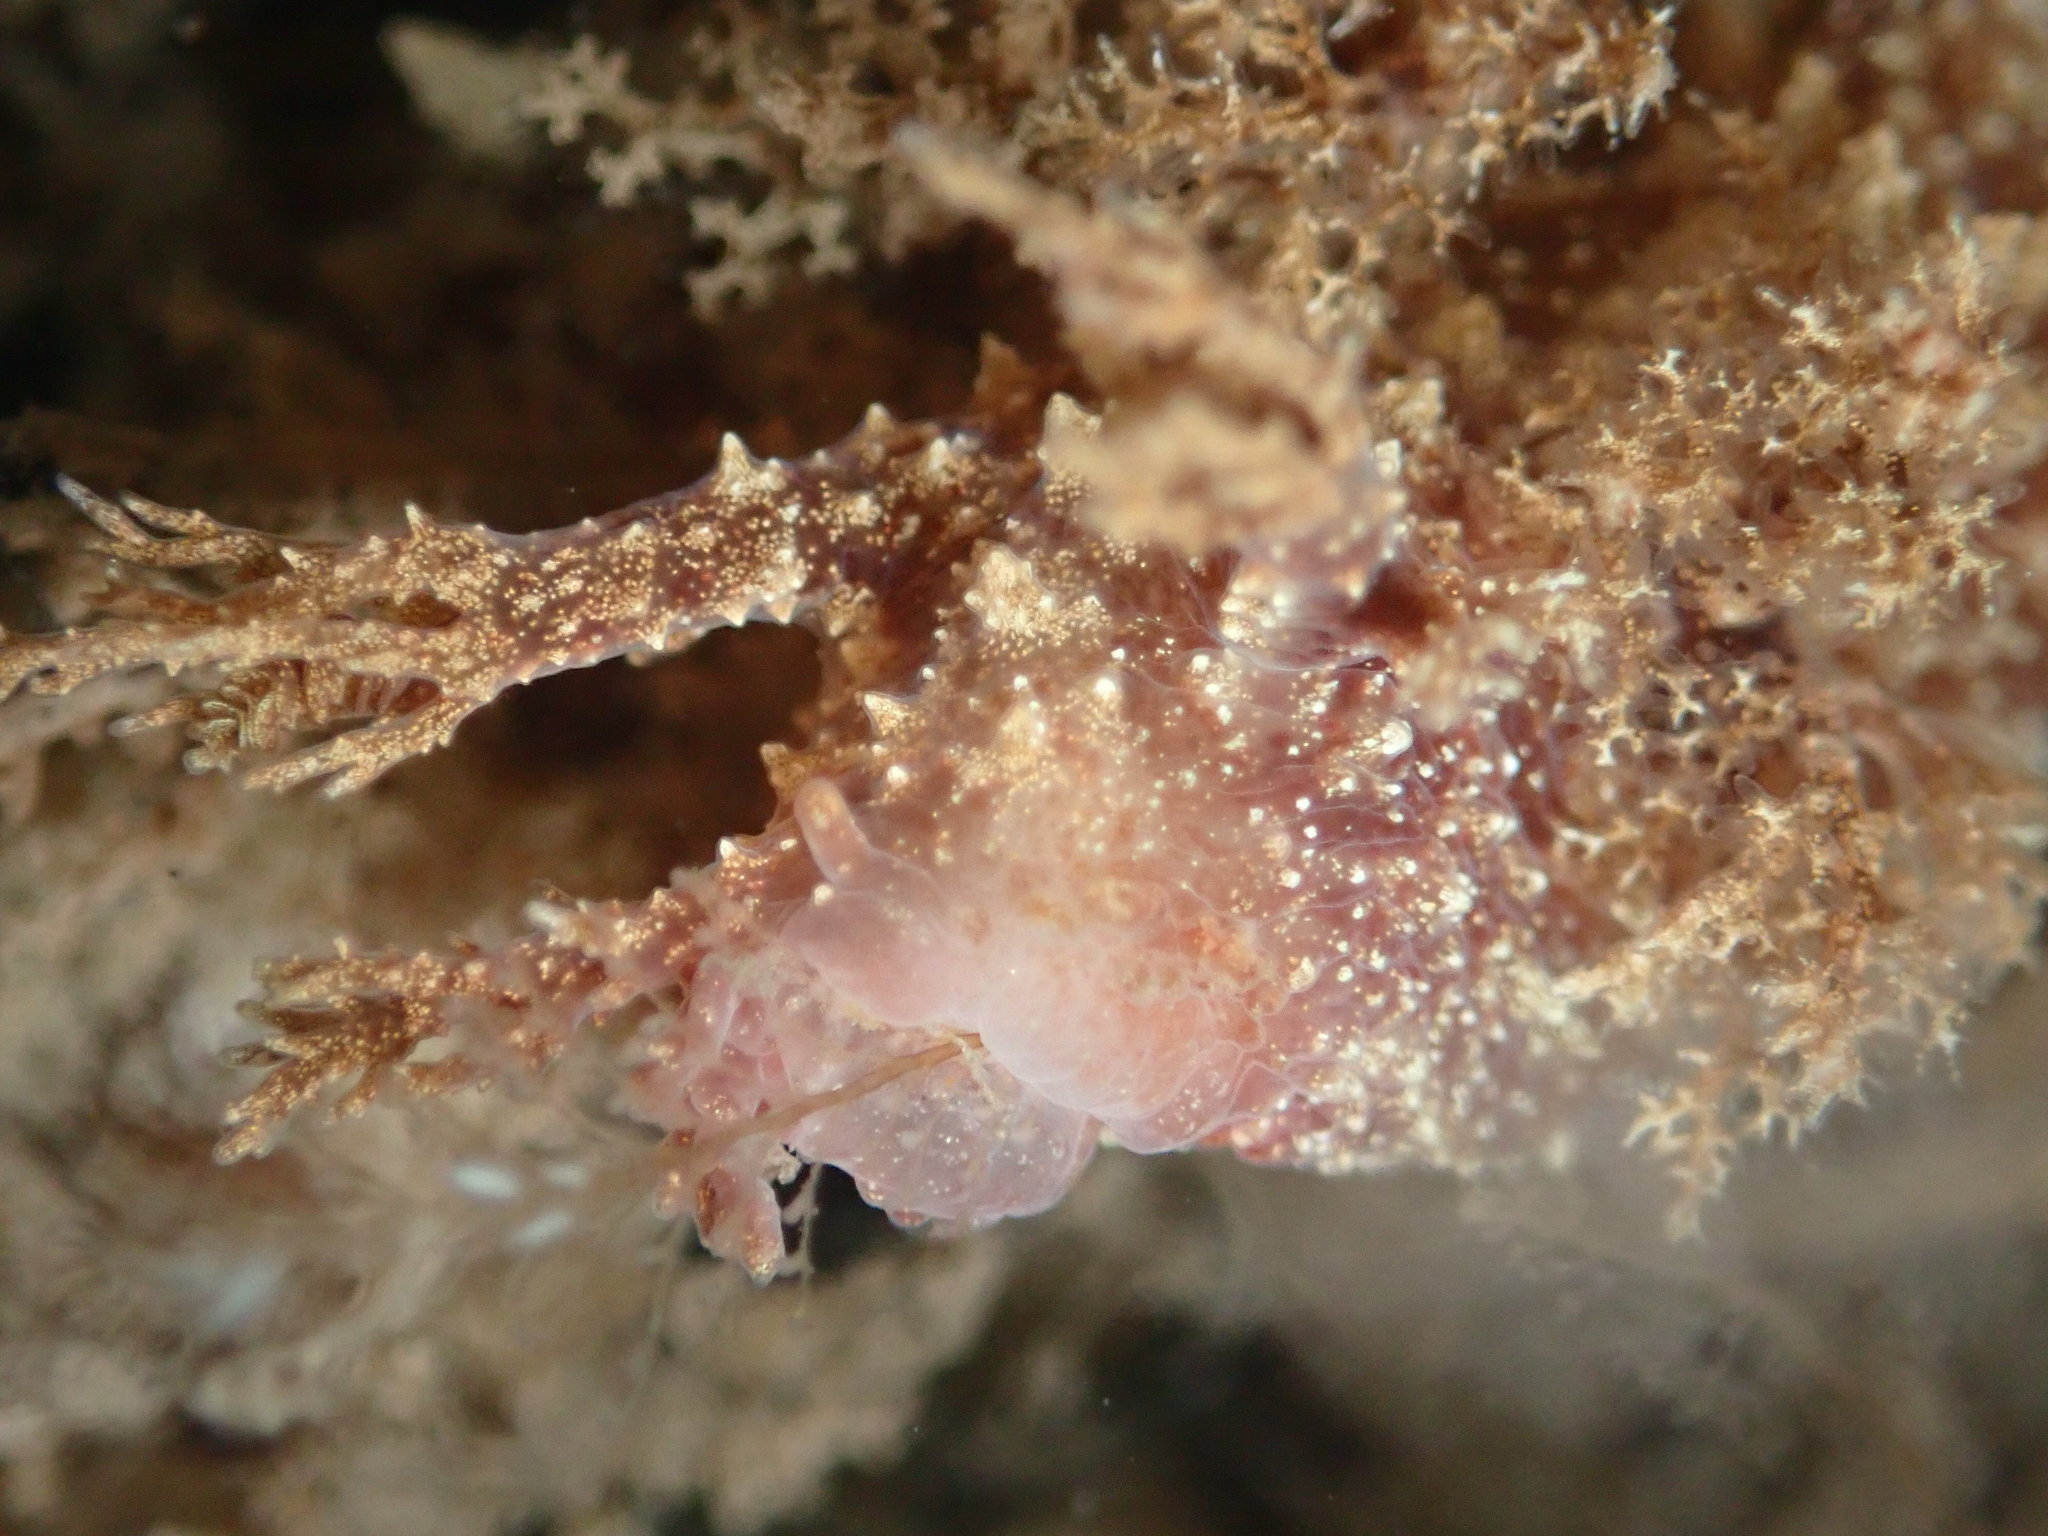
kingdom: Animalia
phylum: Mollusca
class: Gastropoda
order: Nudibranchia
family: Dendronotidae
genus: Dendronotus
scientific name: Dendronotus venustus
